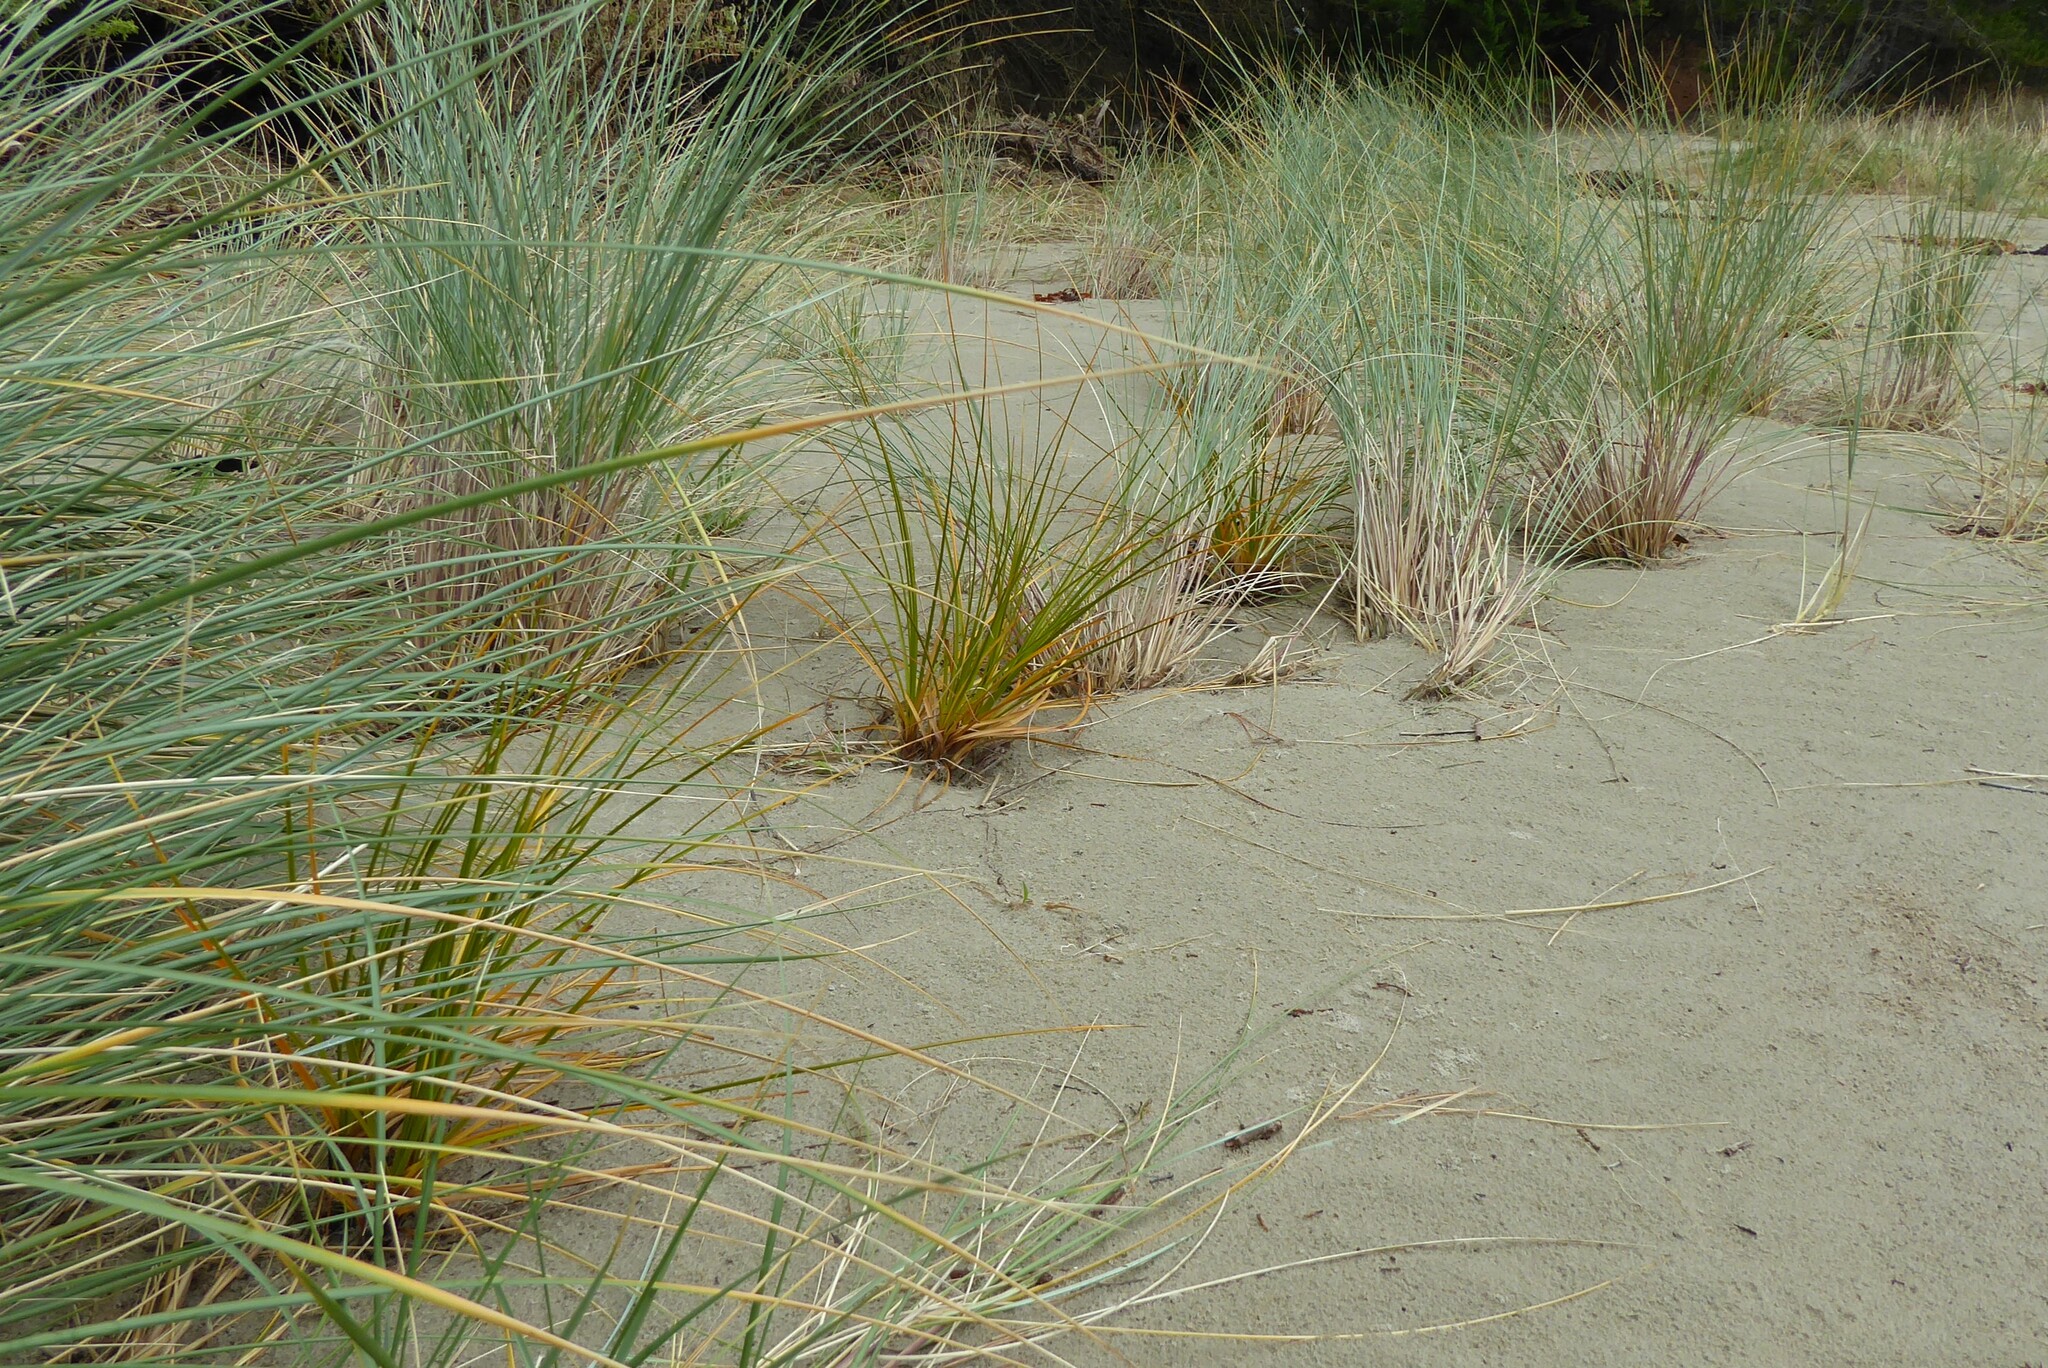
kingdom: Plantae
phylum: Tracheophyta
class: Liliopsida
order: Poales
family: Cyperaceae
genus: Ficinia
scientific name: Ficinia spiralis
